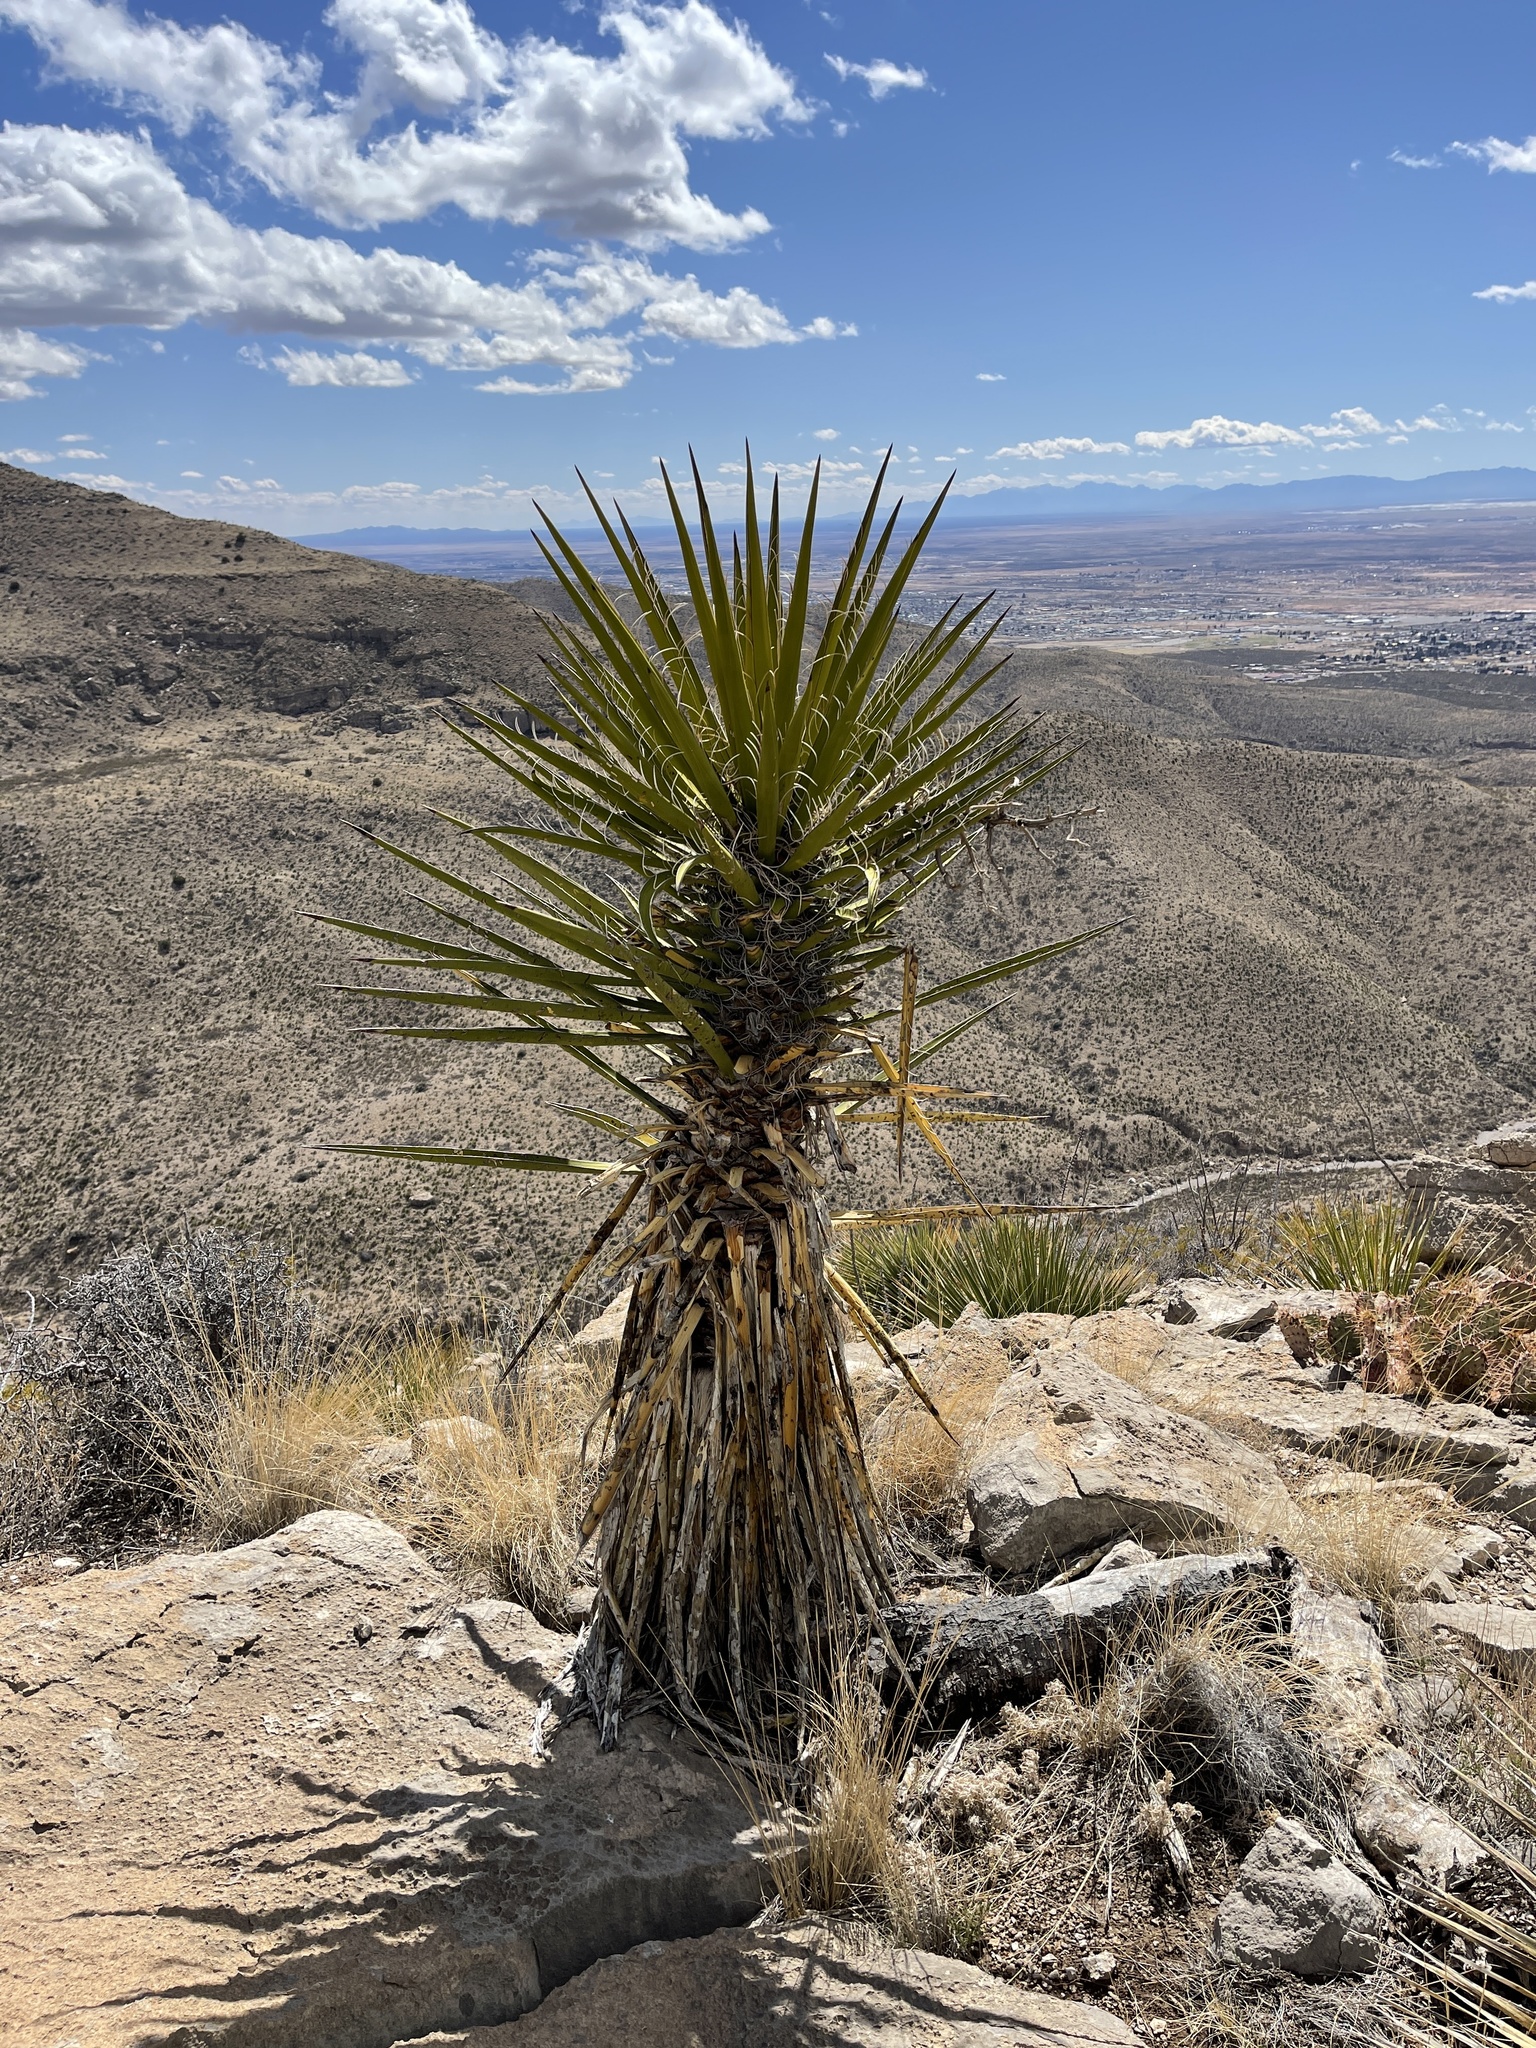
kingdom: Plantae
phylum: Tracheophyta
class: Liliopsida
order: Asparagales
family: Asparagaceae
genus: Yucca
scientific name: Yucca treculiana
